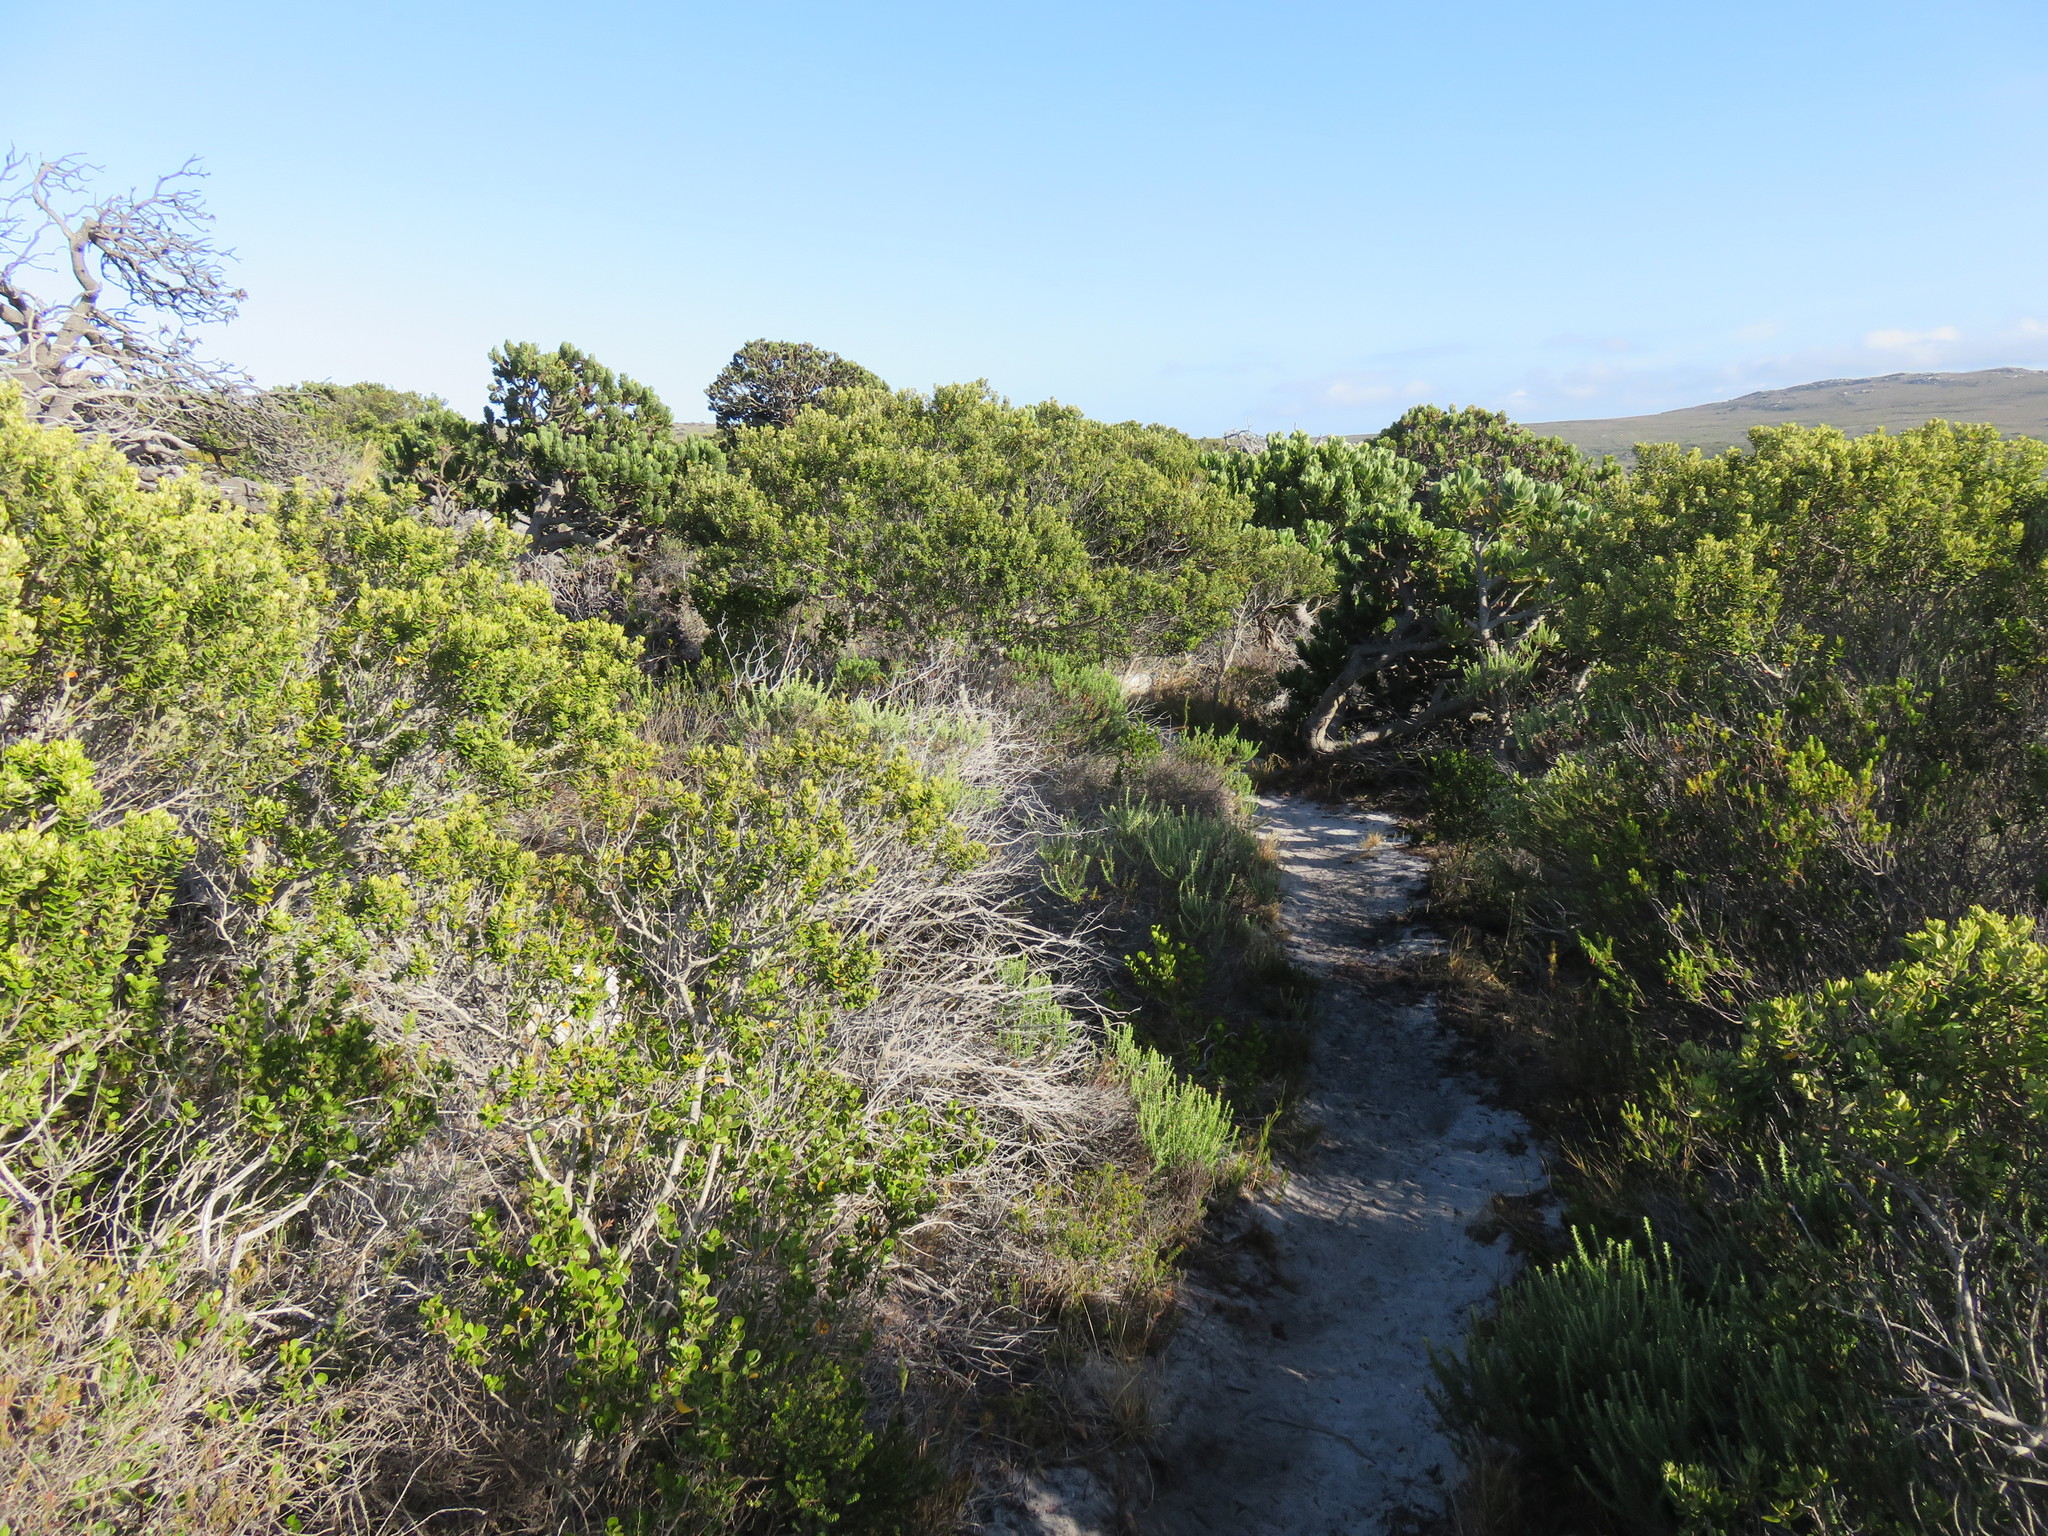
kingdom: Plantae
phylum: Tracheophyta
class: Magnoliopsida
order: Rosales
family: Rhamnaceae
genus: Phylica
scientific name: Phylica buxifolia
